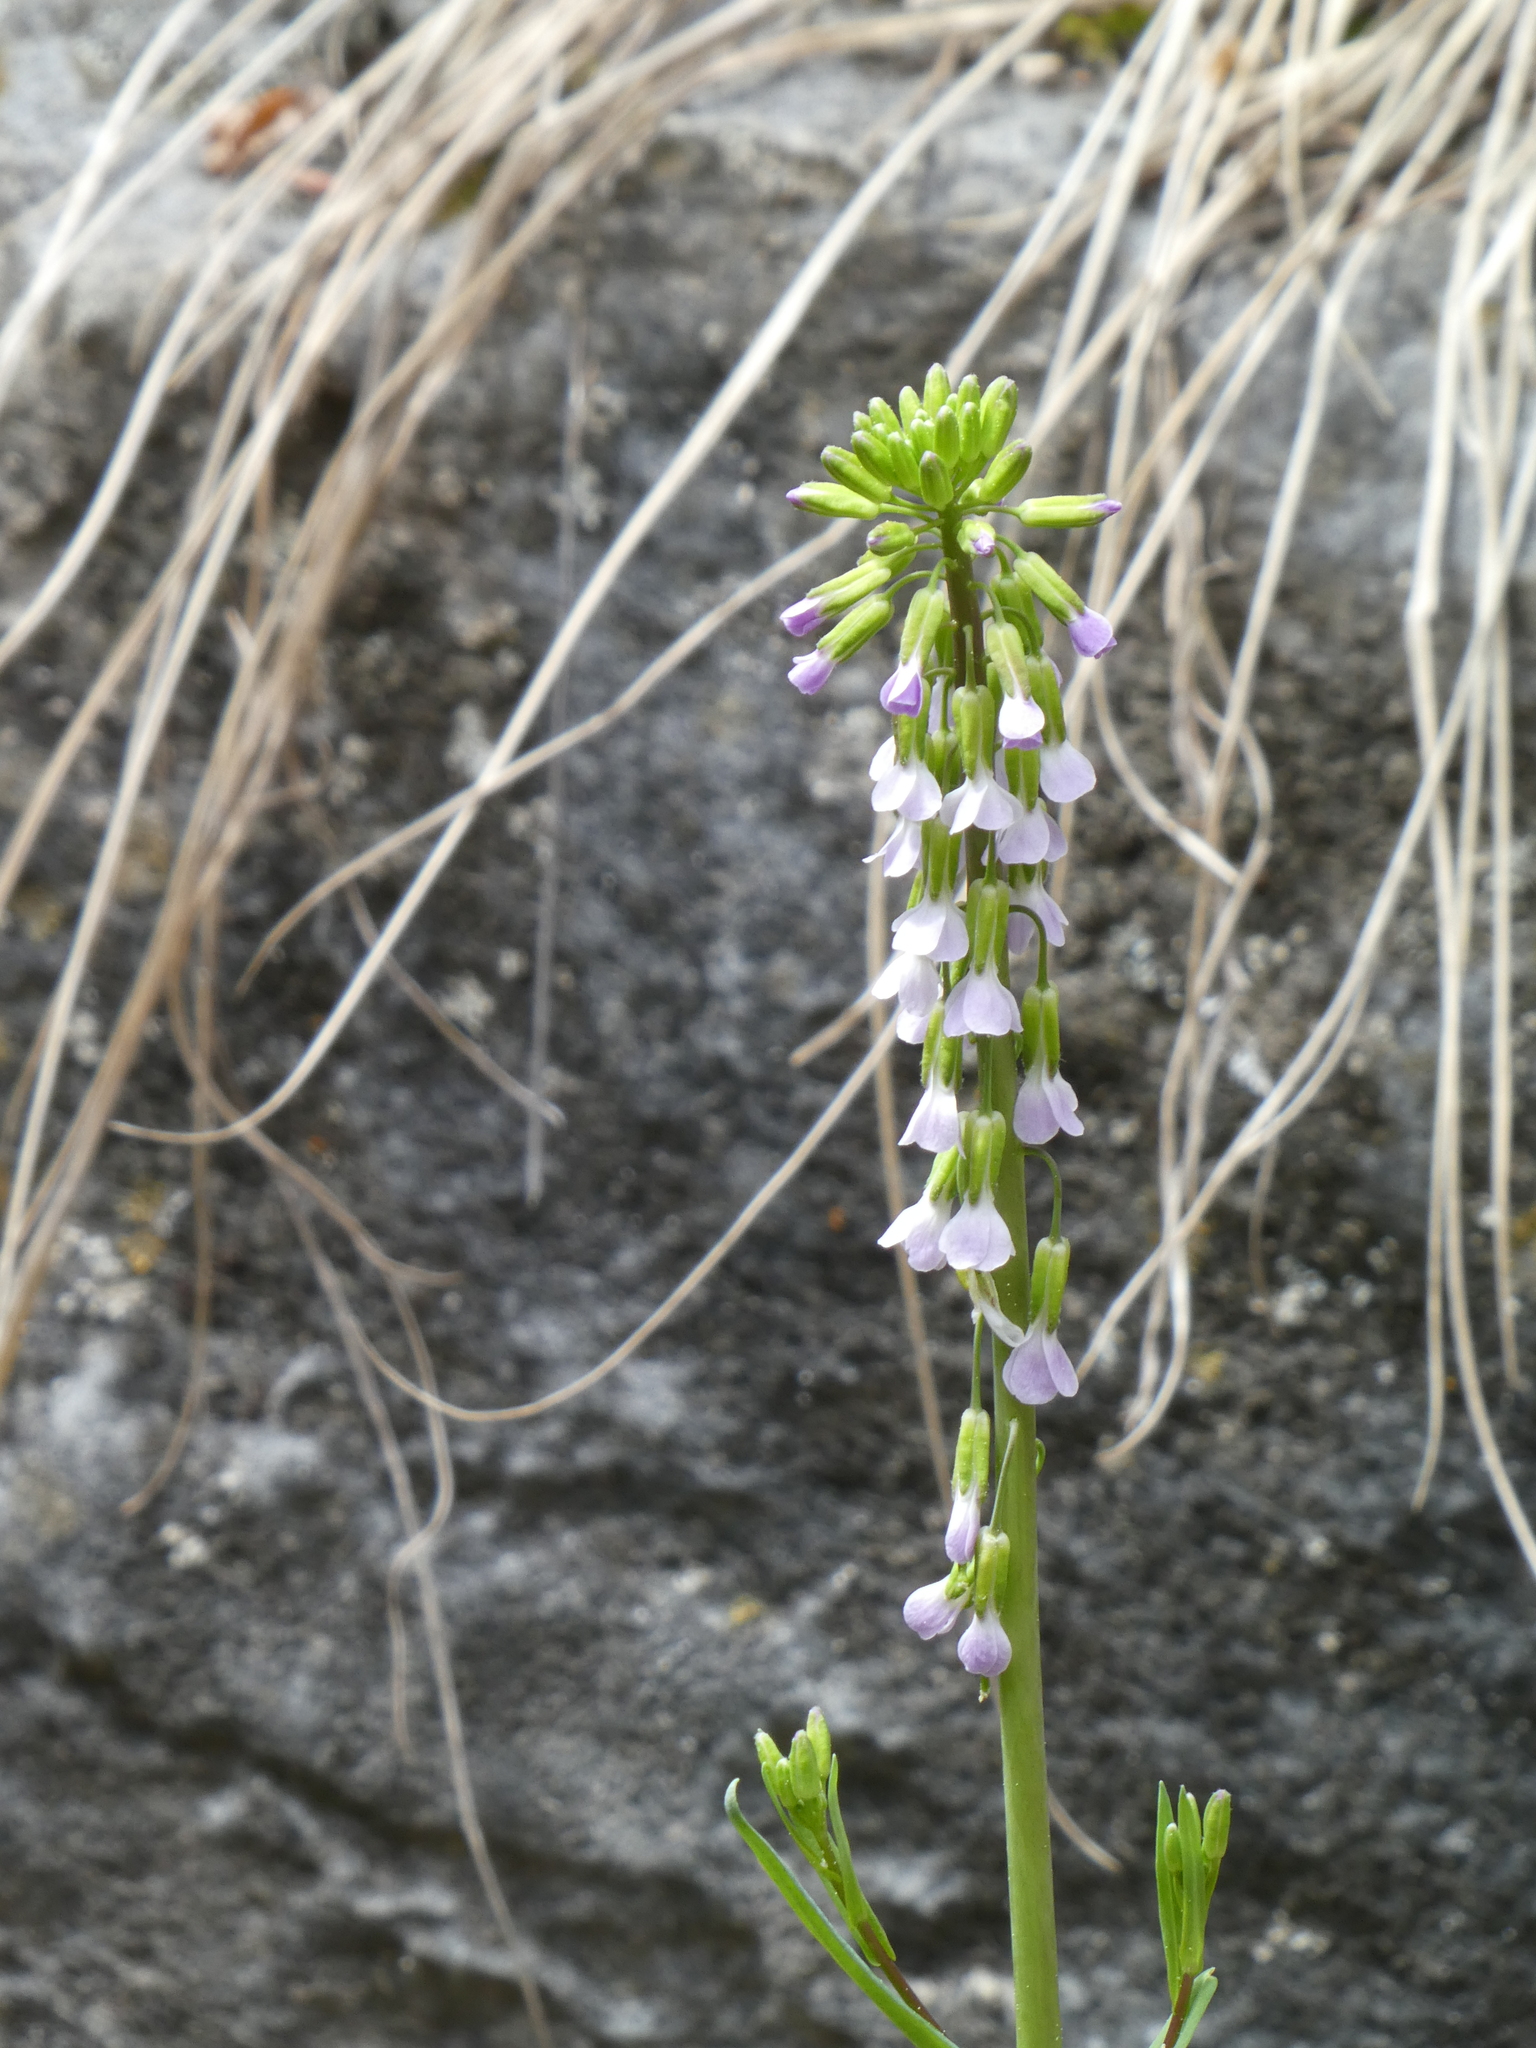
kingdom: Plantae
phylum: Tracheophyta
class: Magnoliopsida
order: Brassicales
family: Brassicaceae
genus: Boechera
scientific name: Boechera retrofracta
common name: Dangling suncress
